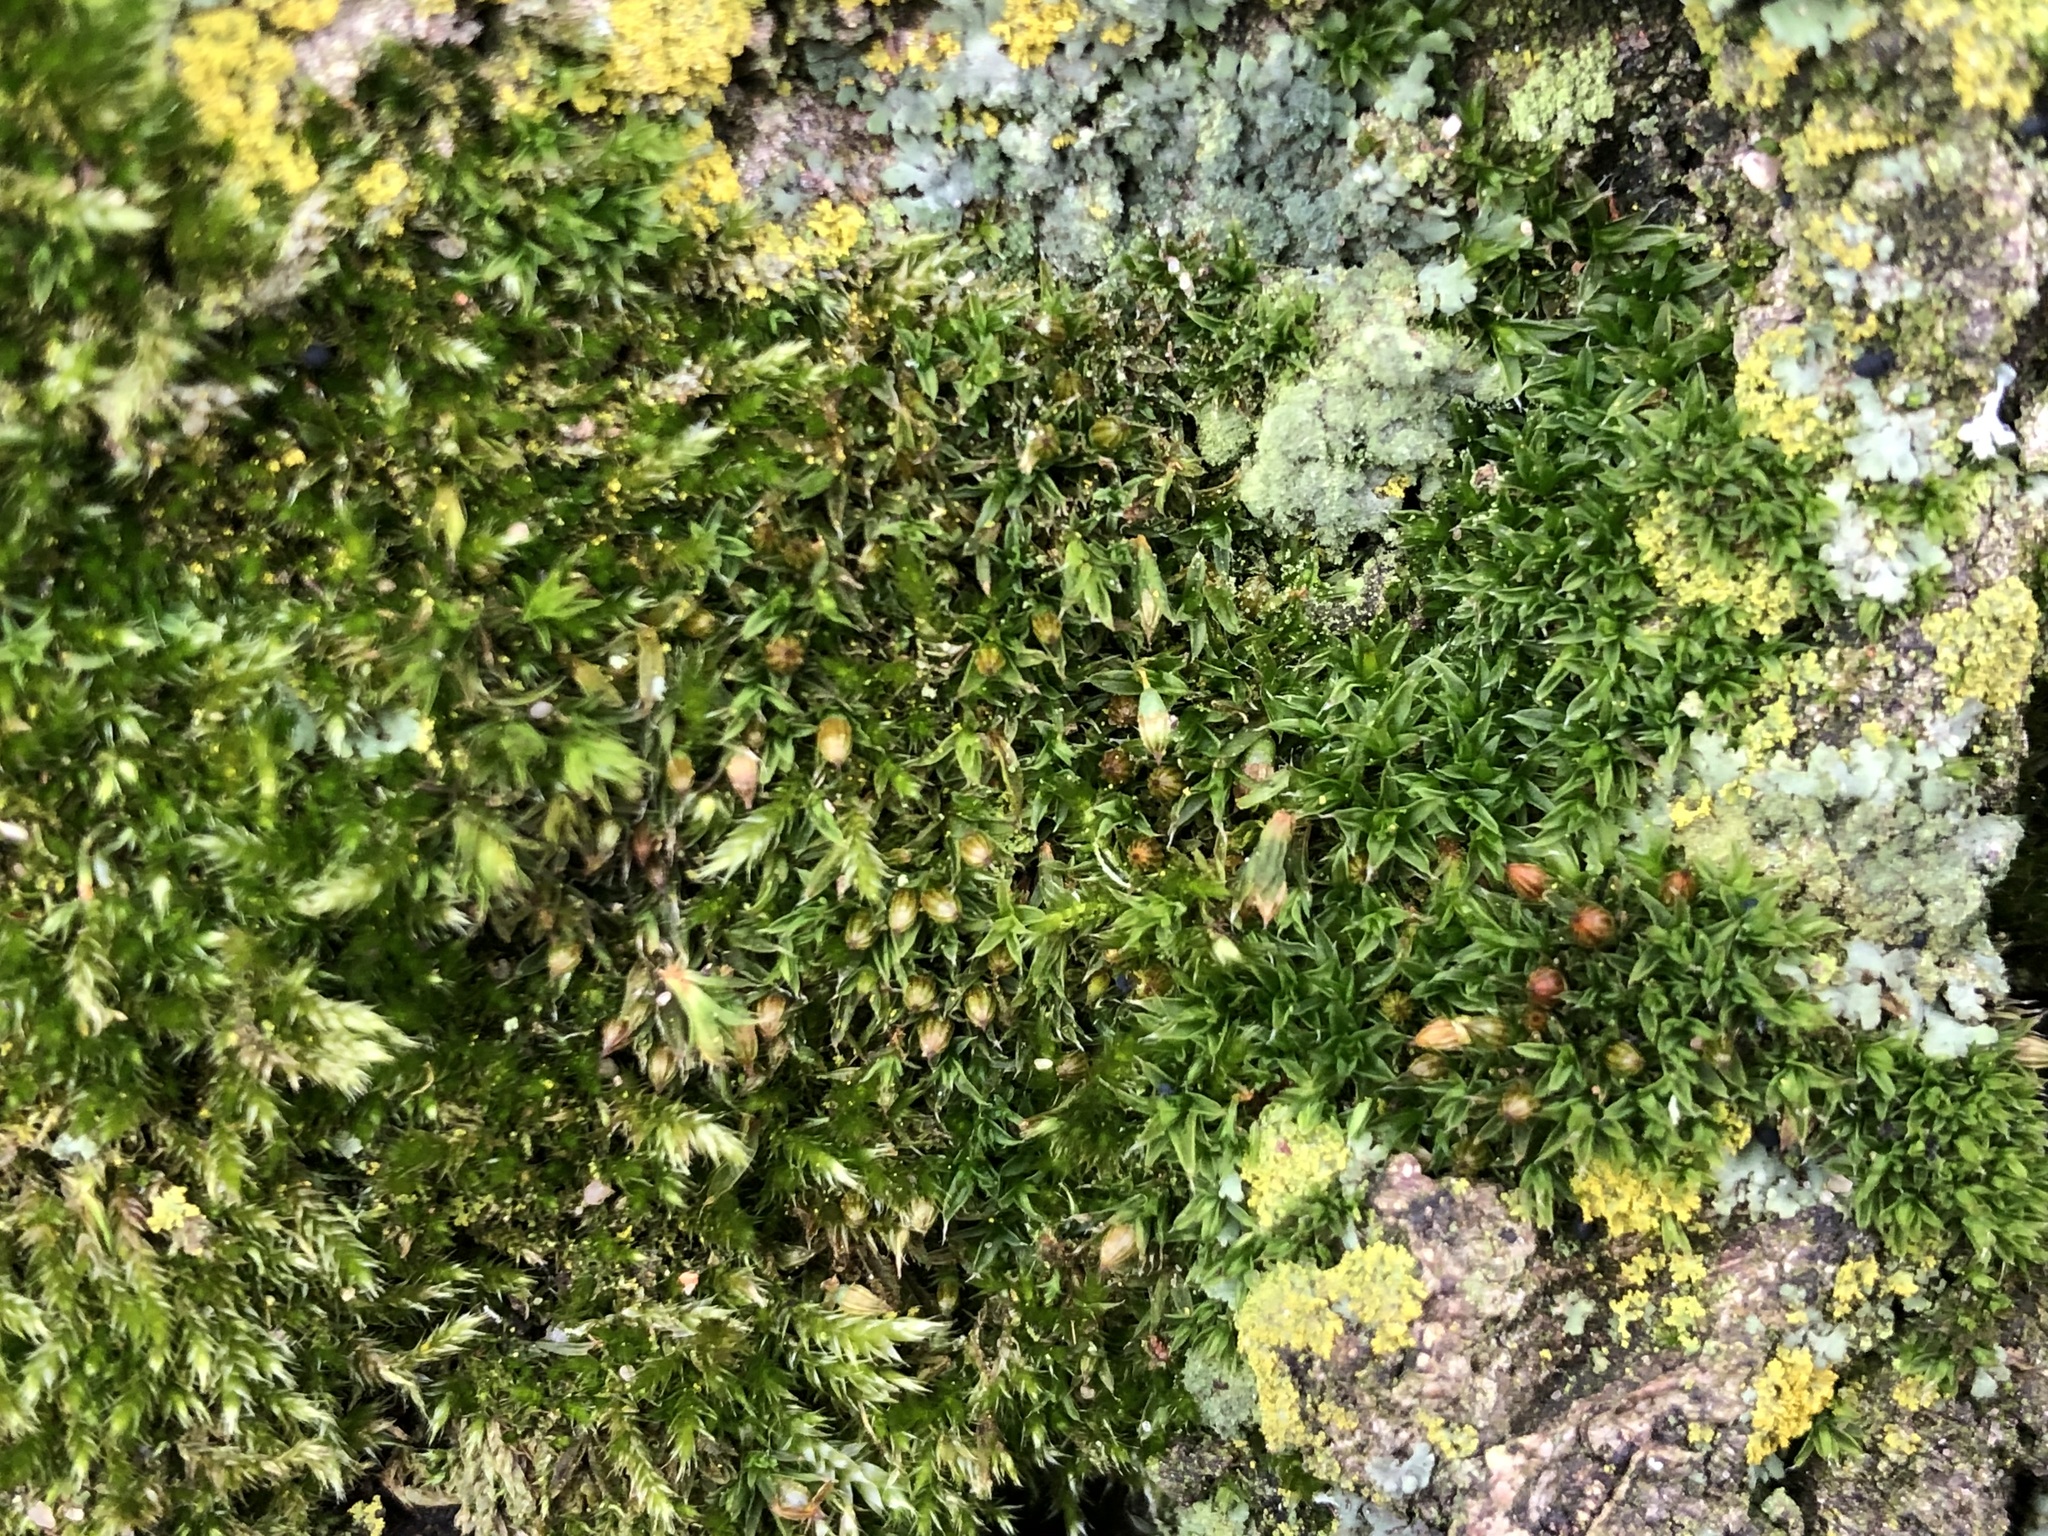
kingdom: Plantae
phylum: Bryophyta
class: Bryopsida
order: Orthotrichales
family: Orthotrichaceae
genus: Orthotrichum
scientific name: Orthotrichum diaphanum
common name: White-tipped bristle-moss
